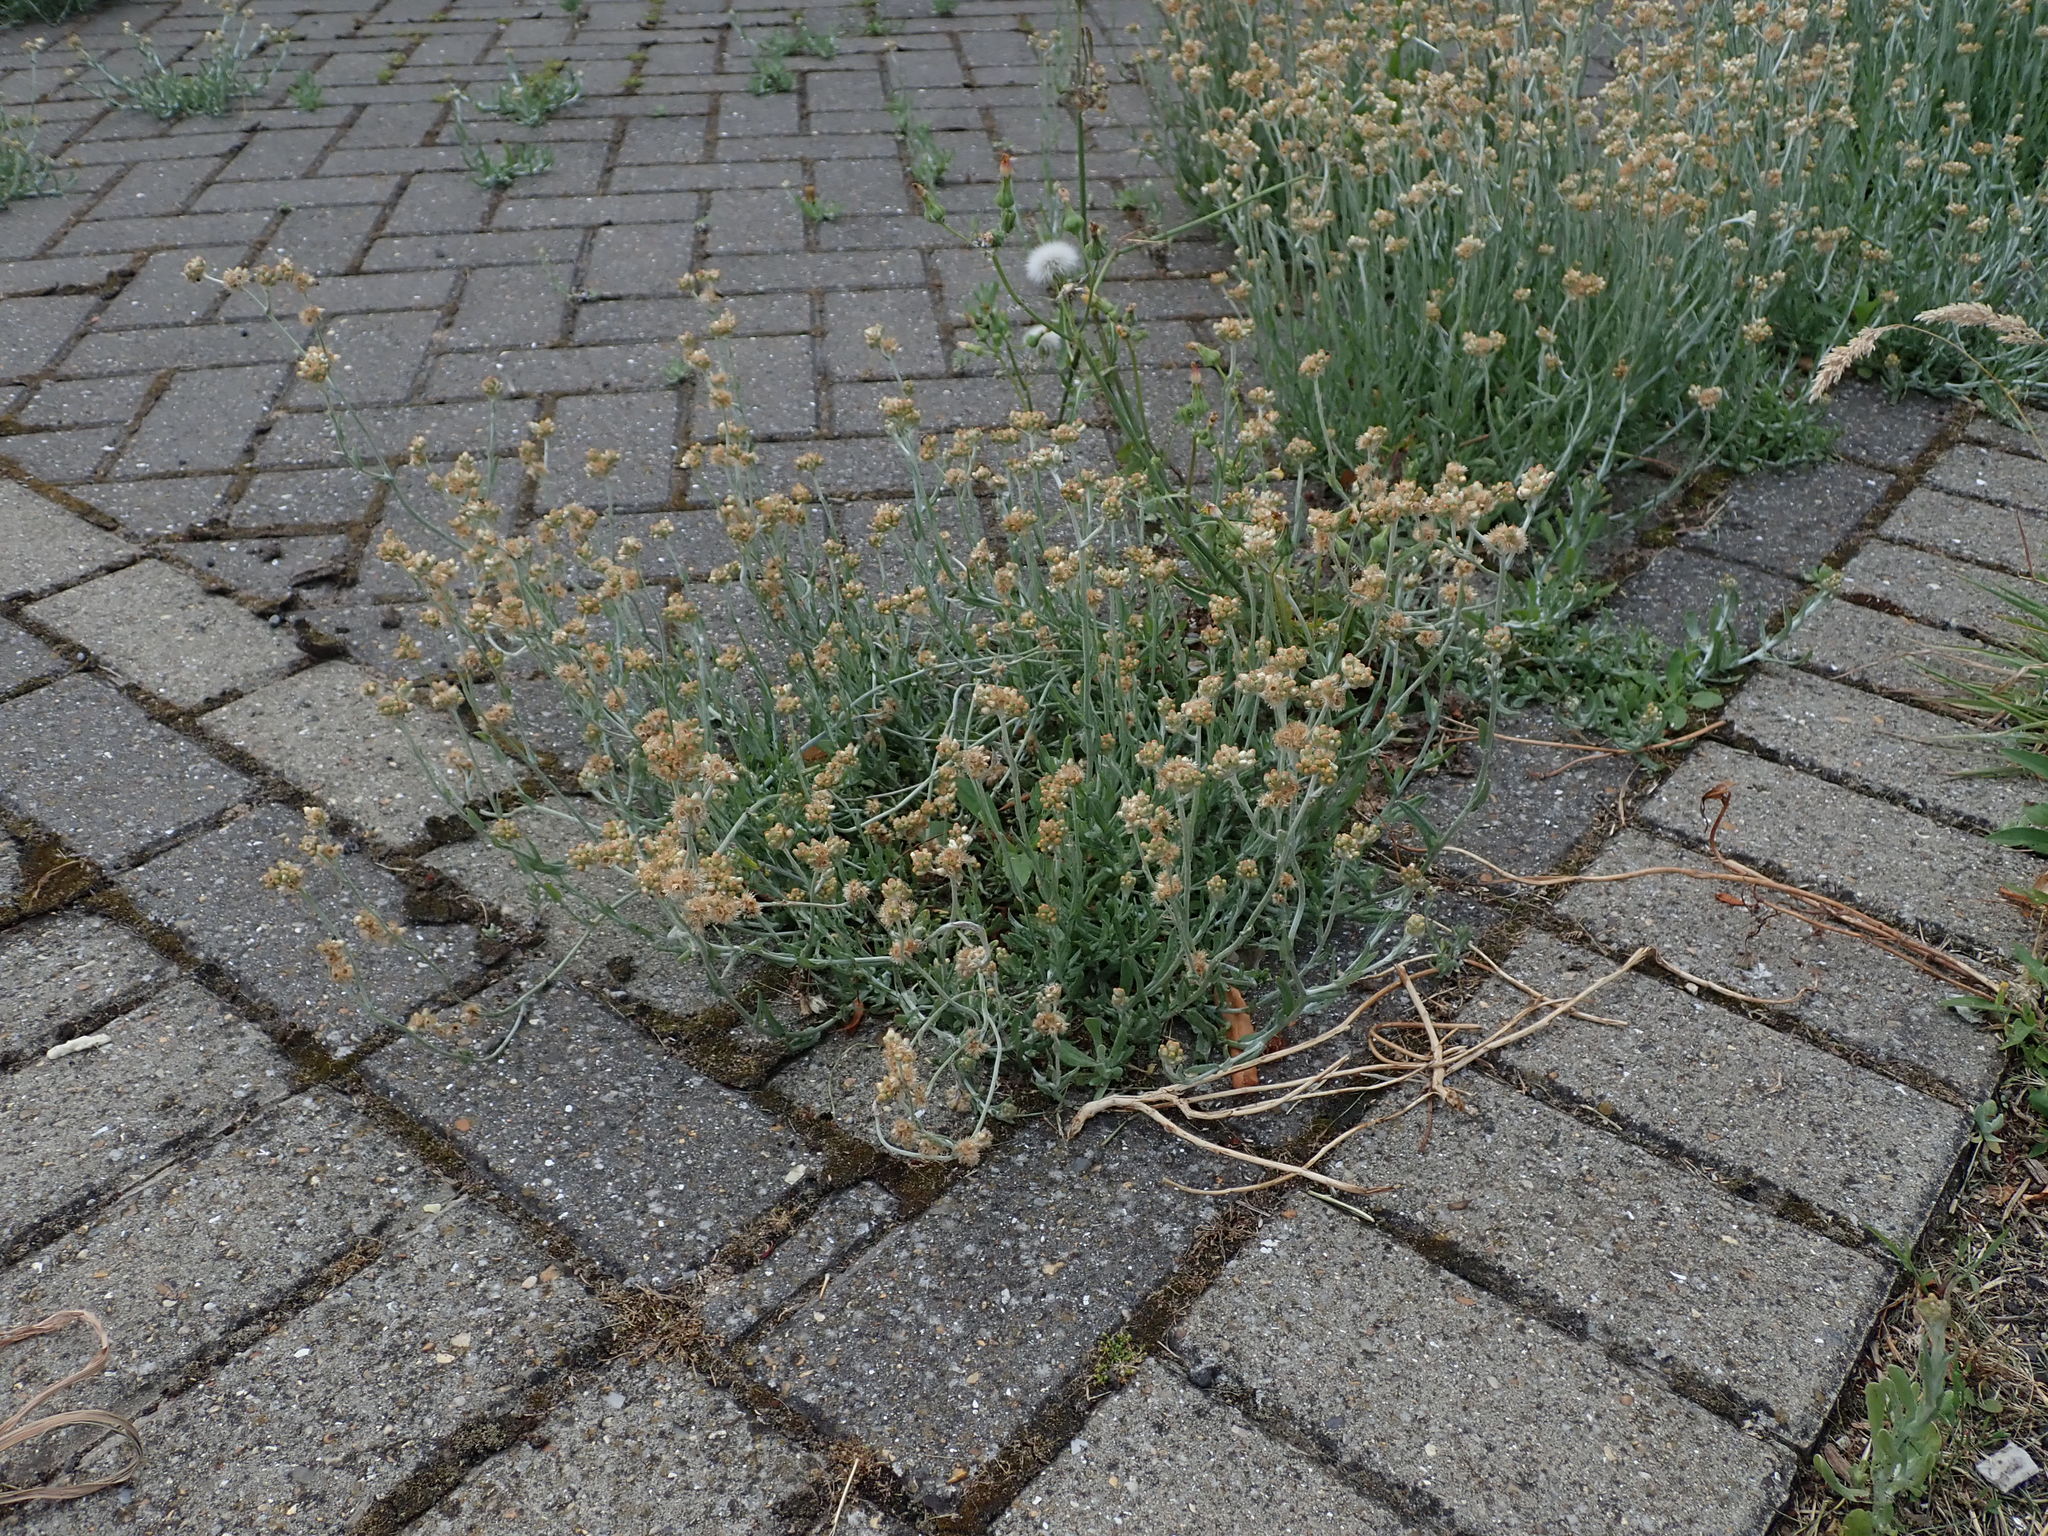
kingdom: Plantae
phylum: Tracheophyta
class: Magnoliopsida
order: Asterales
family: Asteraceae
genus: Helichrysum
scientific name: Helichrysum luteoalbum
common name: Daisy
